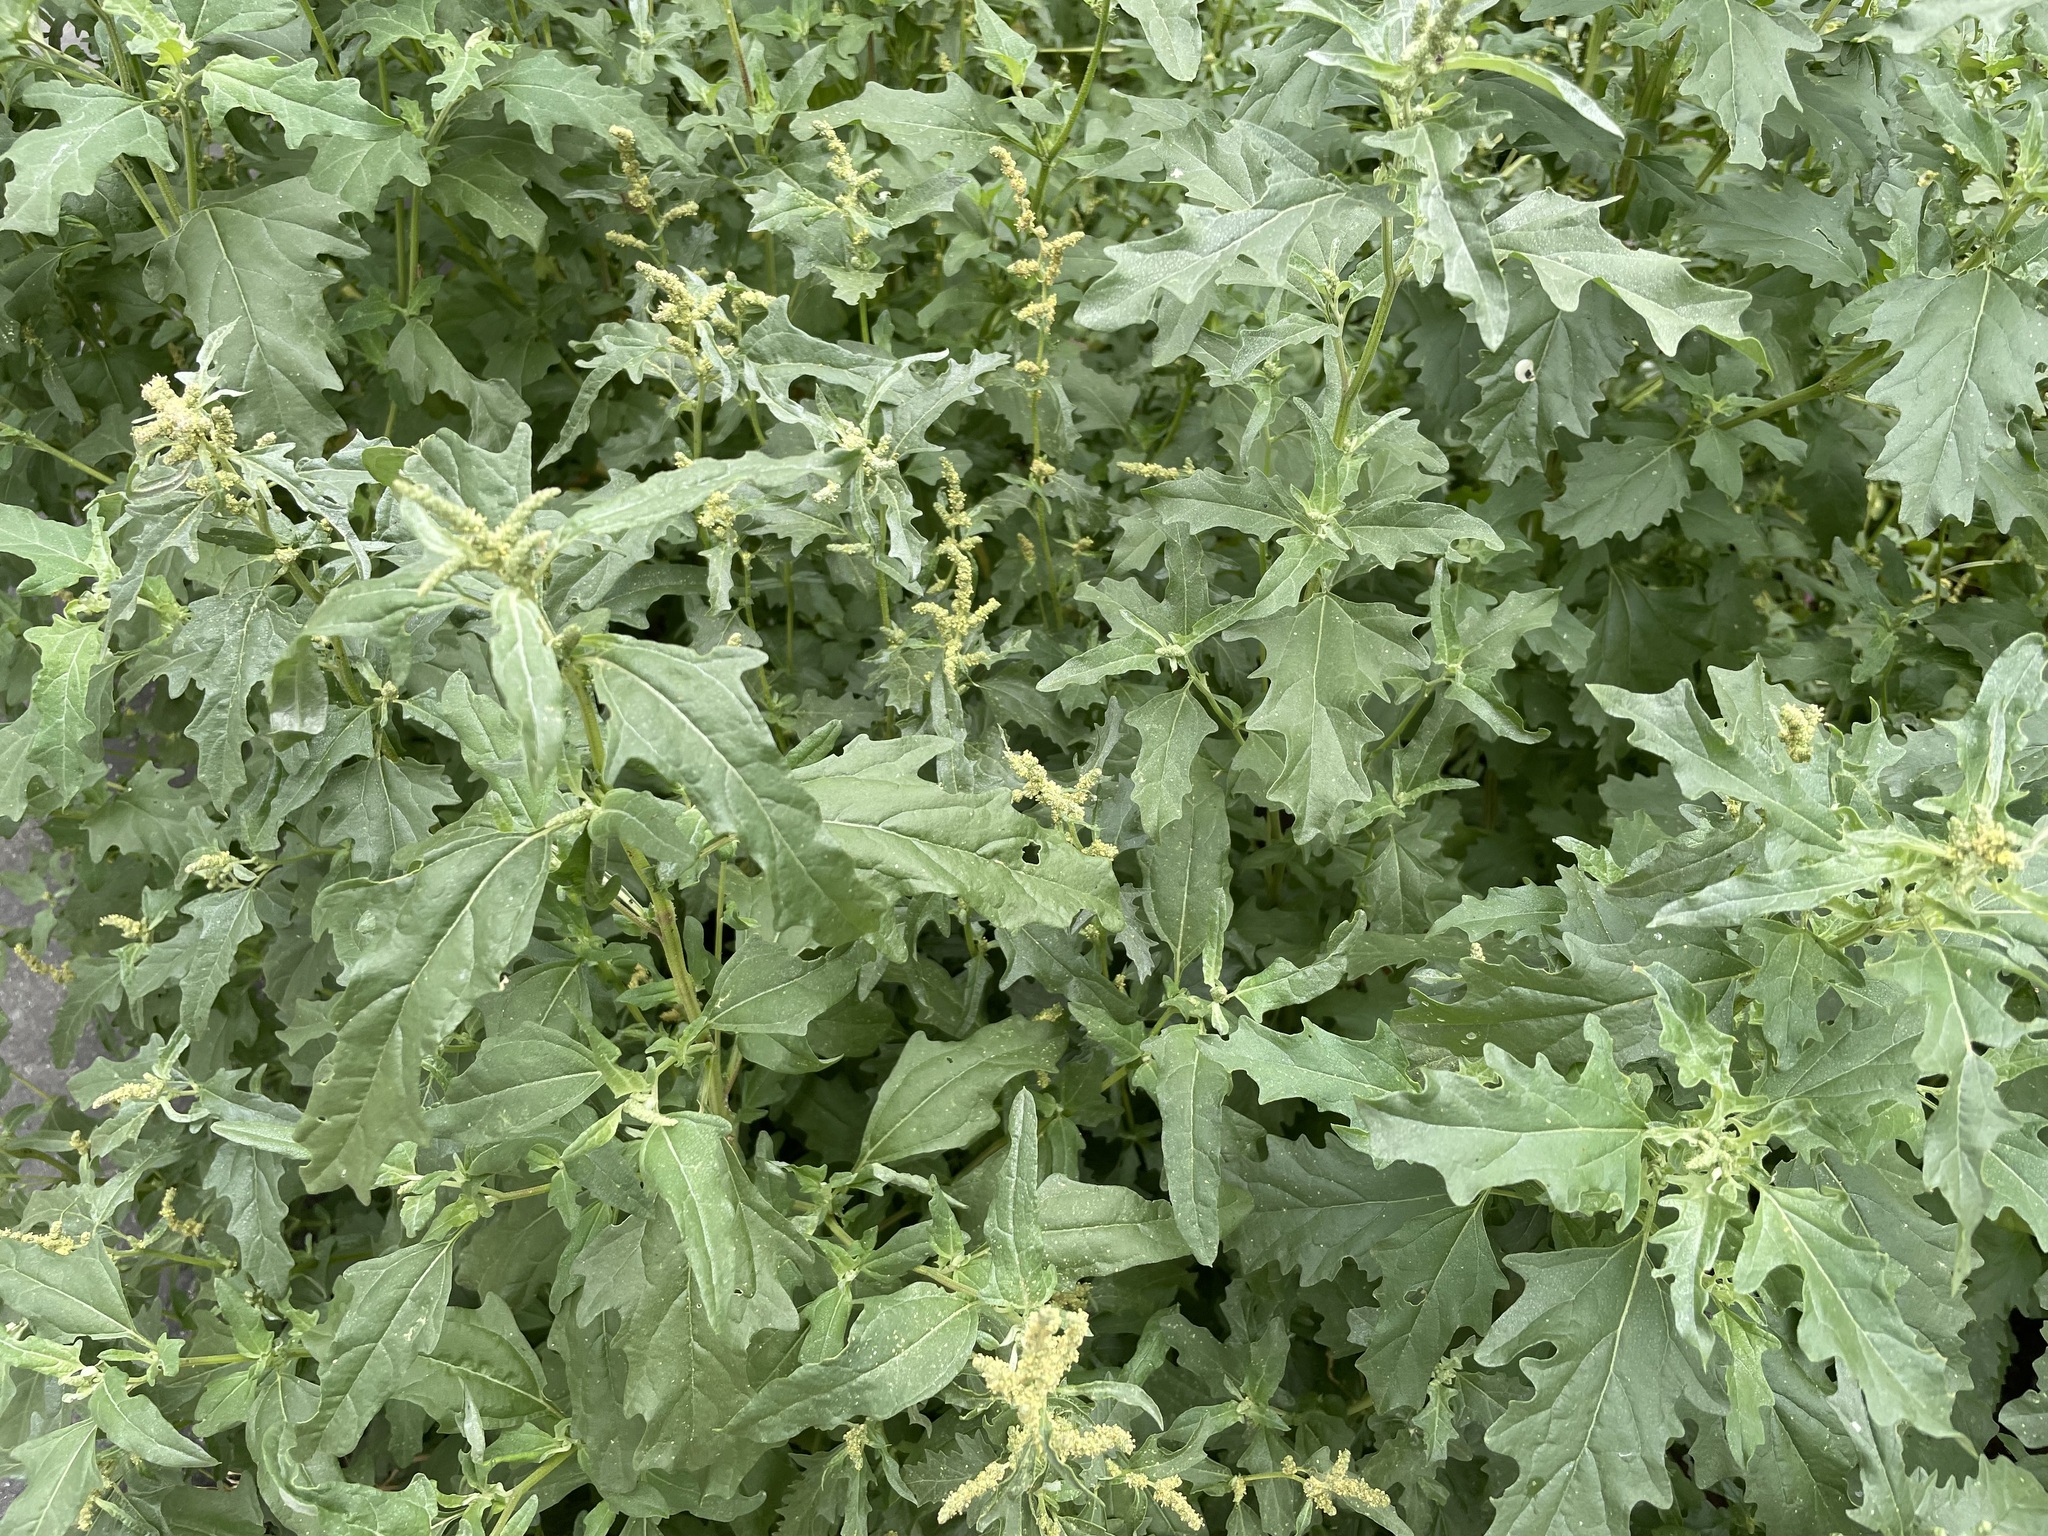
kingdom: Plantae
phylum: Tracheophyta
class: Magnoliopsida
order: Caryophyllales
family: Amaranthaceae
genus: Atriplex
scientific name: Atriplex tatarica
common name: Tatarian orache
